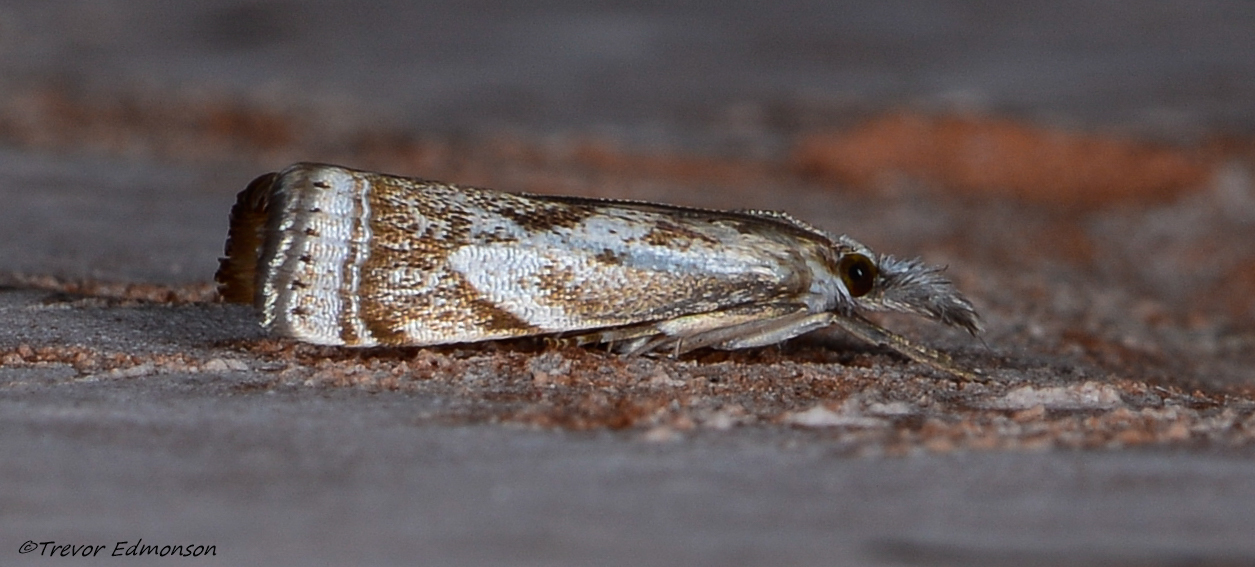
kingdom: Animalia
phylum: Arthropoda
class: Insecta
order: Lepidoptera
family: Crambidae
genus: Microcrambus
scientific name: Microcrambus elegans
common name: Elegant grass-veneer
